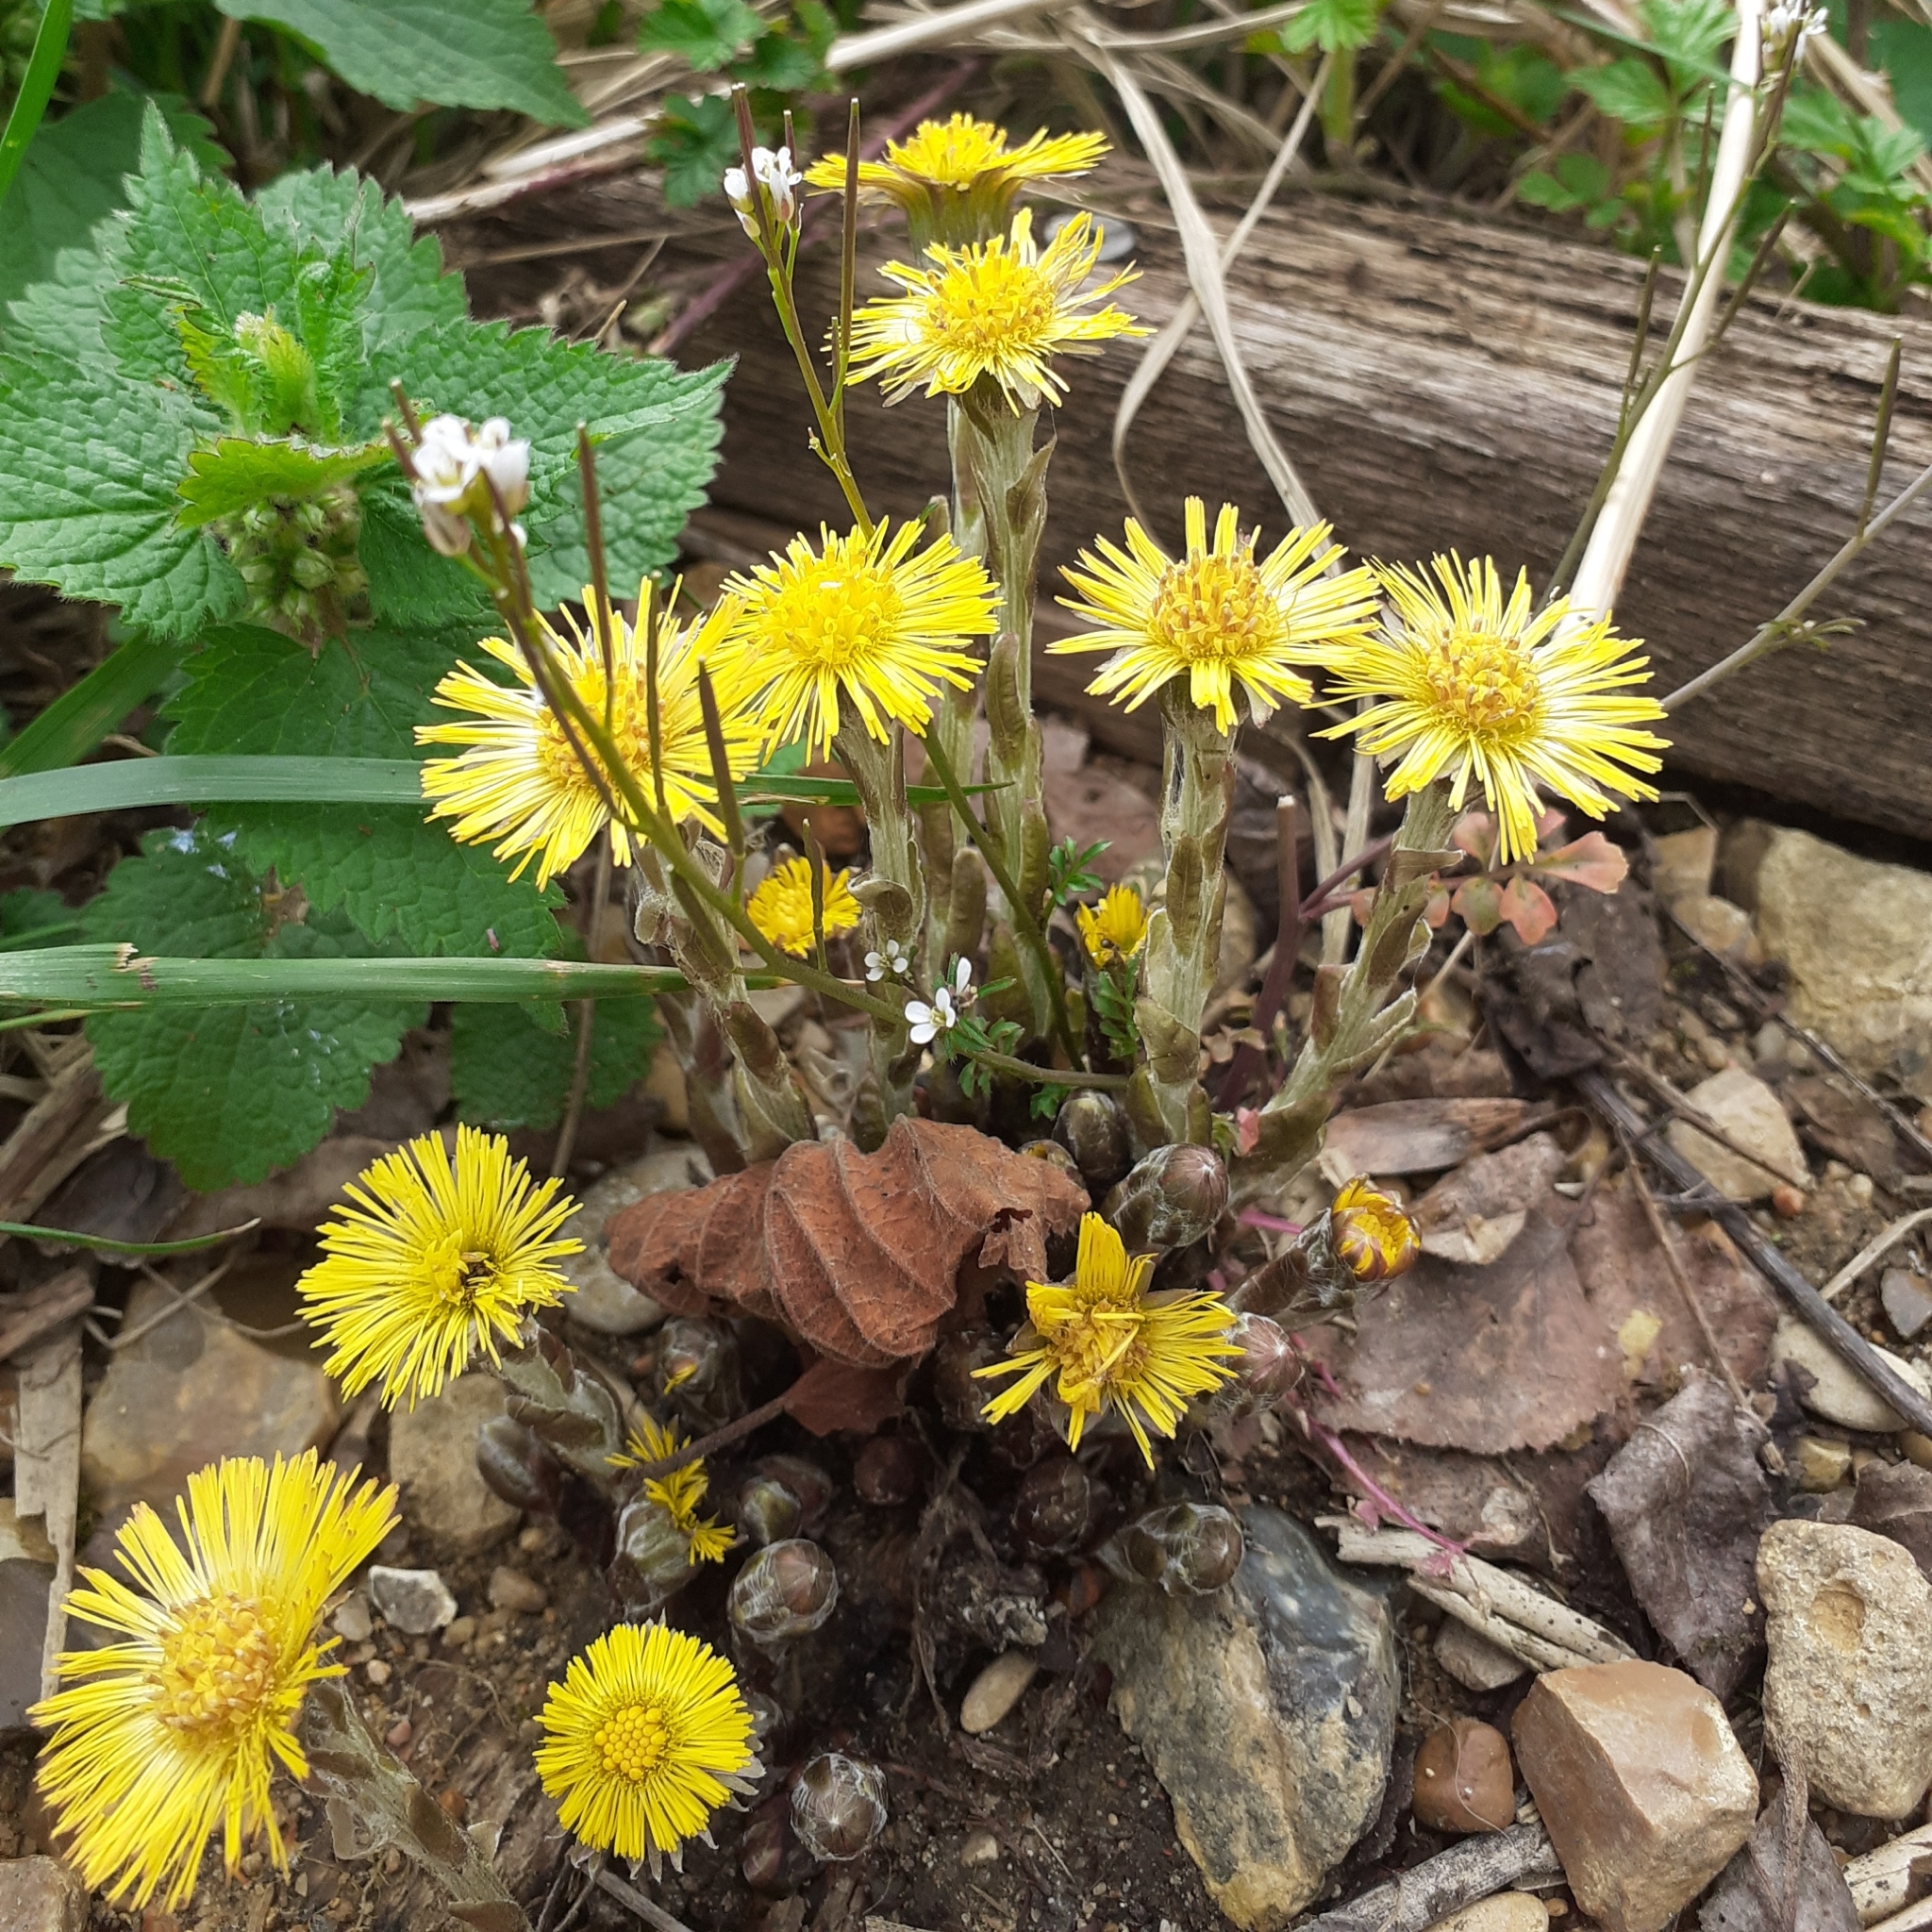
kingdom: Plantae
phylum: Tracheophyta
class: Magnoliopsida
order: Asterales
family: Asteraceae
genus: Tussilago
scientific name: Tussilago farfara
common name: Coltsfoot
